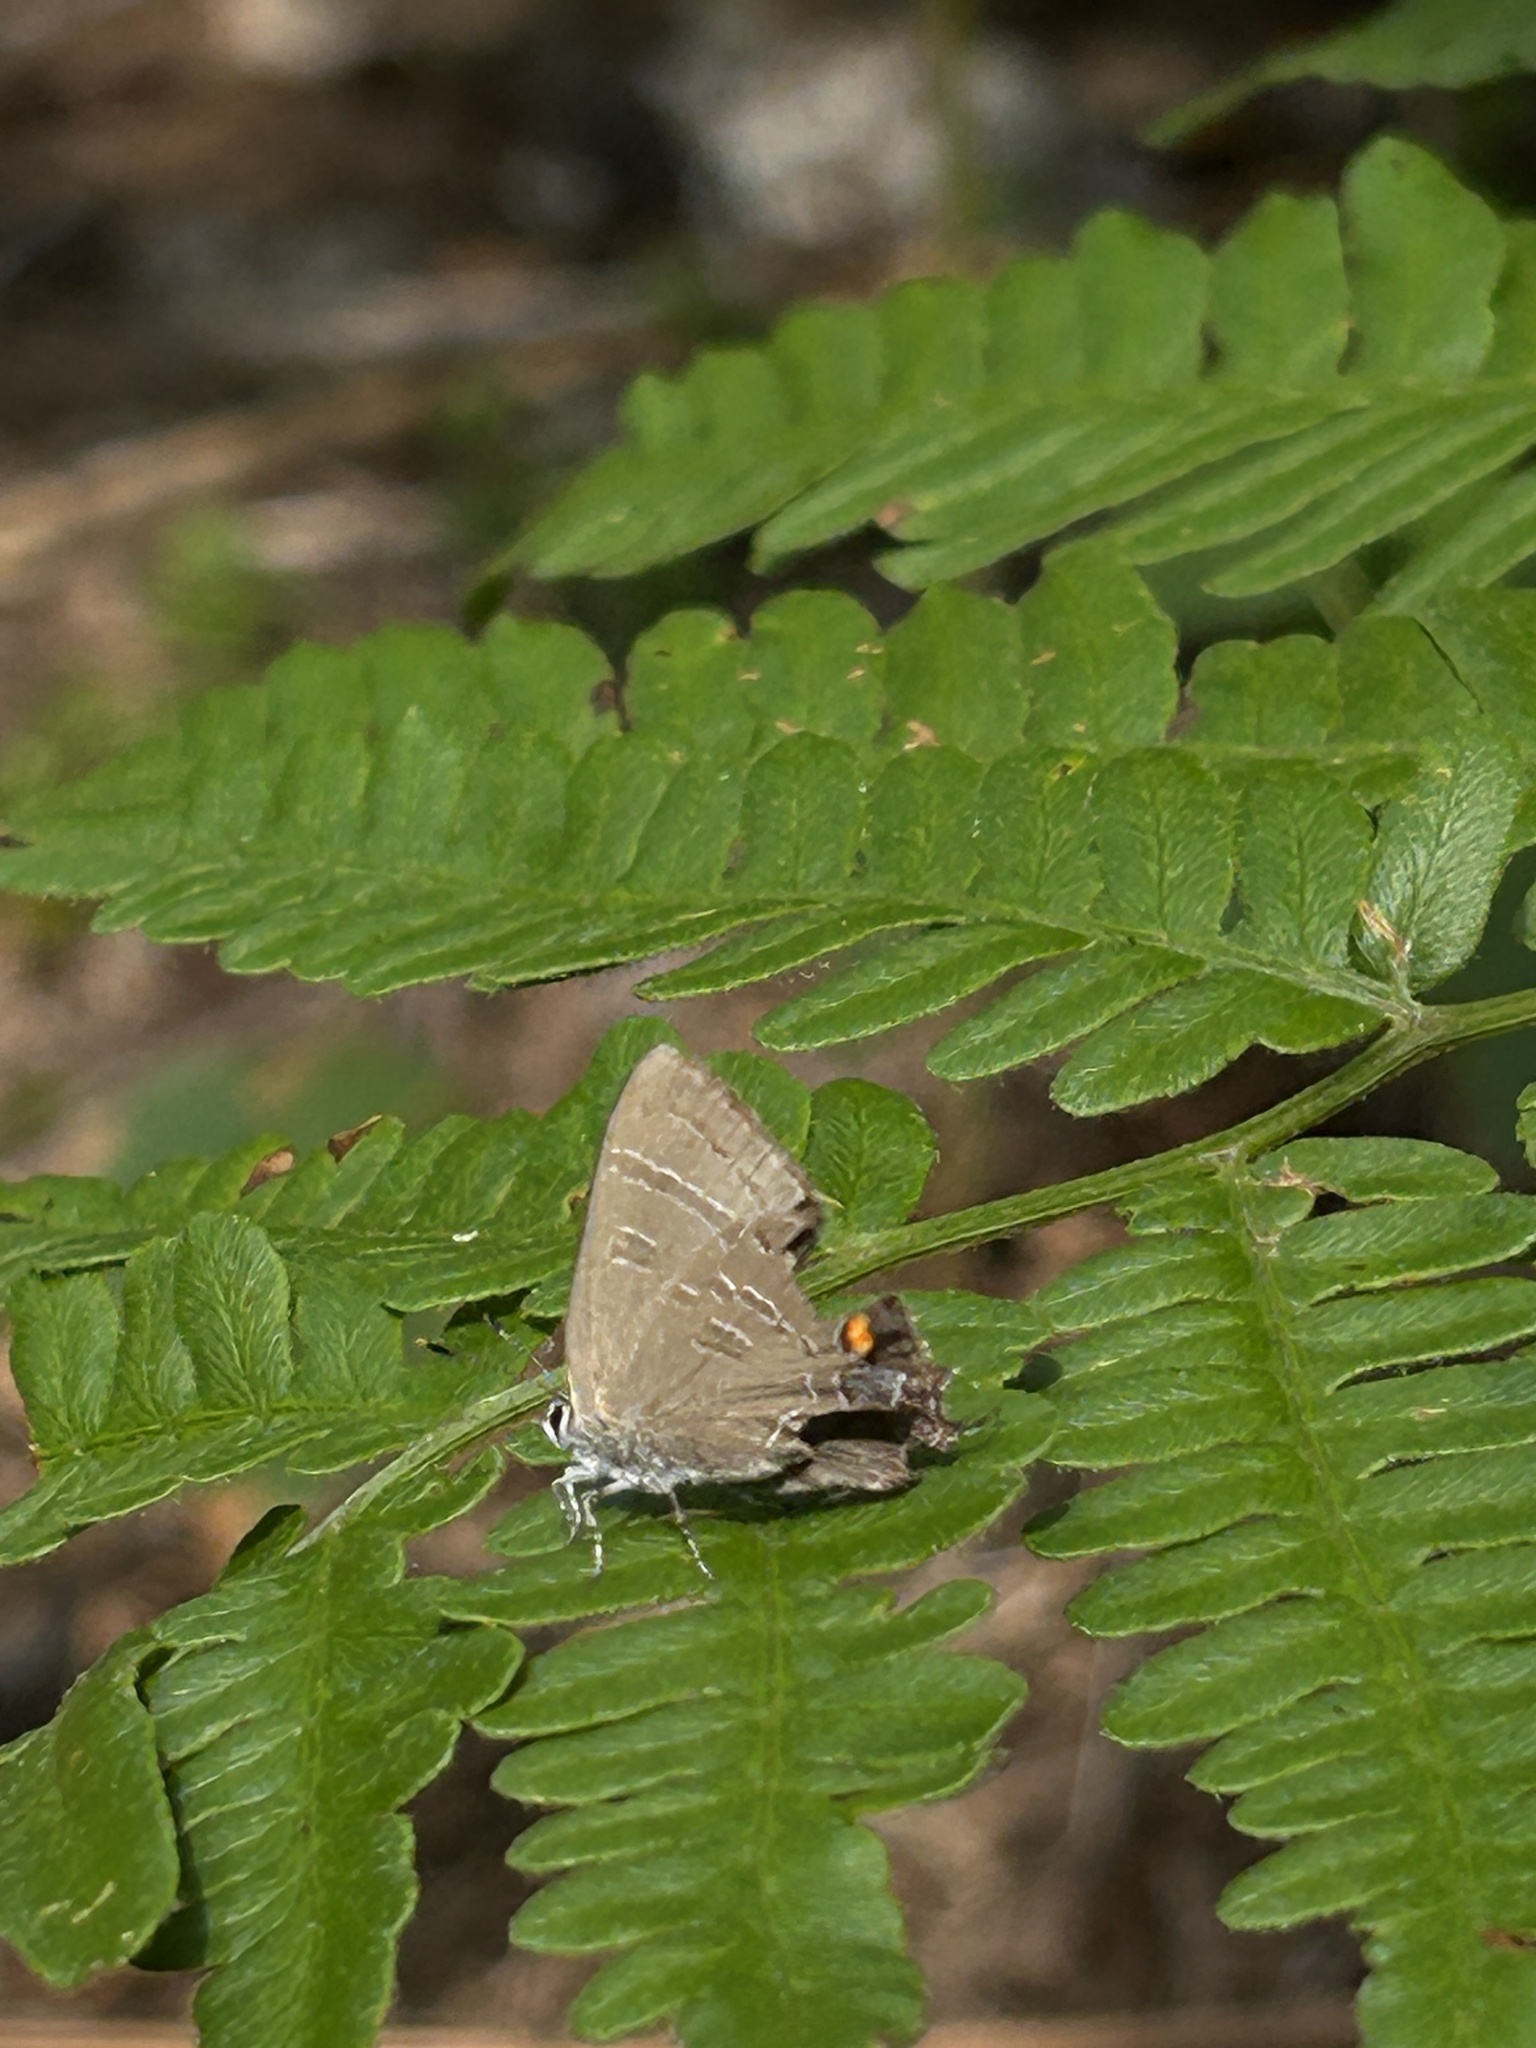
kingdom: Animalia
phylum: Arthropoda
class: Insecta
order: Lepidoptera
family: Lycaenidae
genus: Satyrium
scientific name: Satyrium calanus
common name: Banded hairstreak
